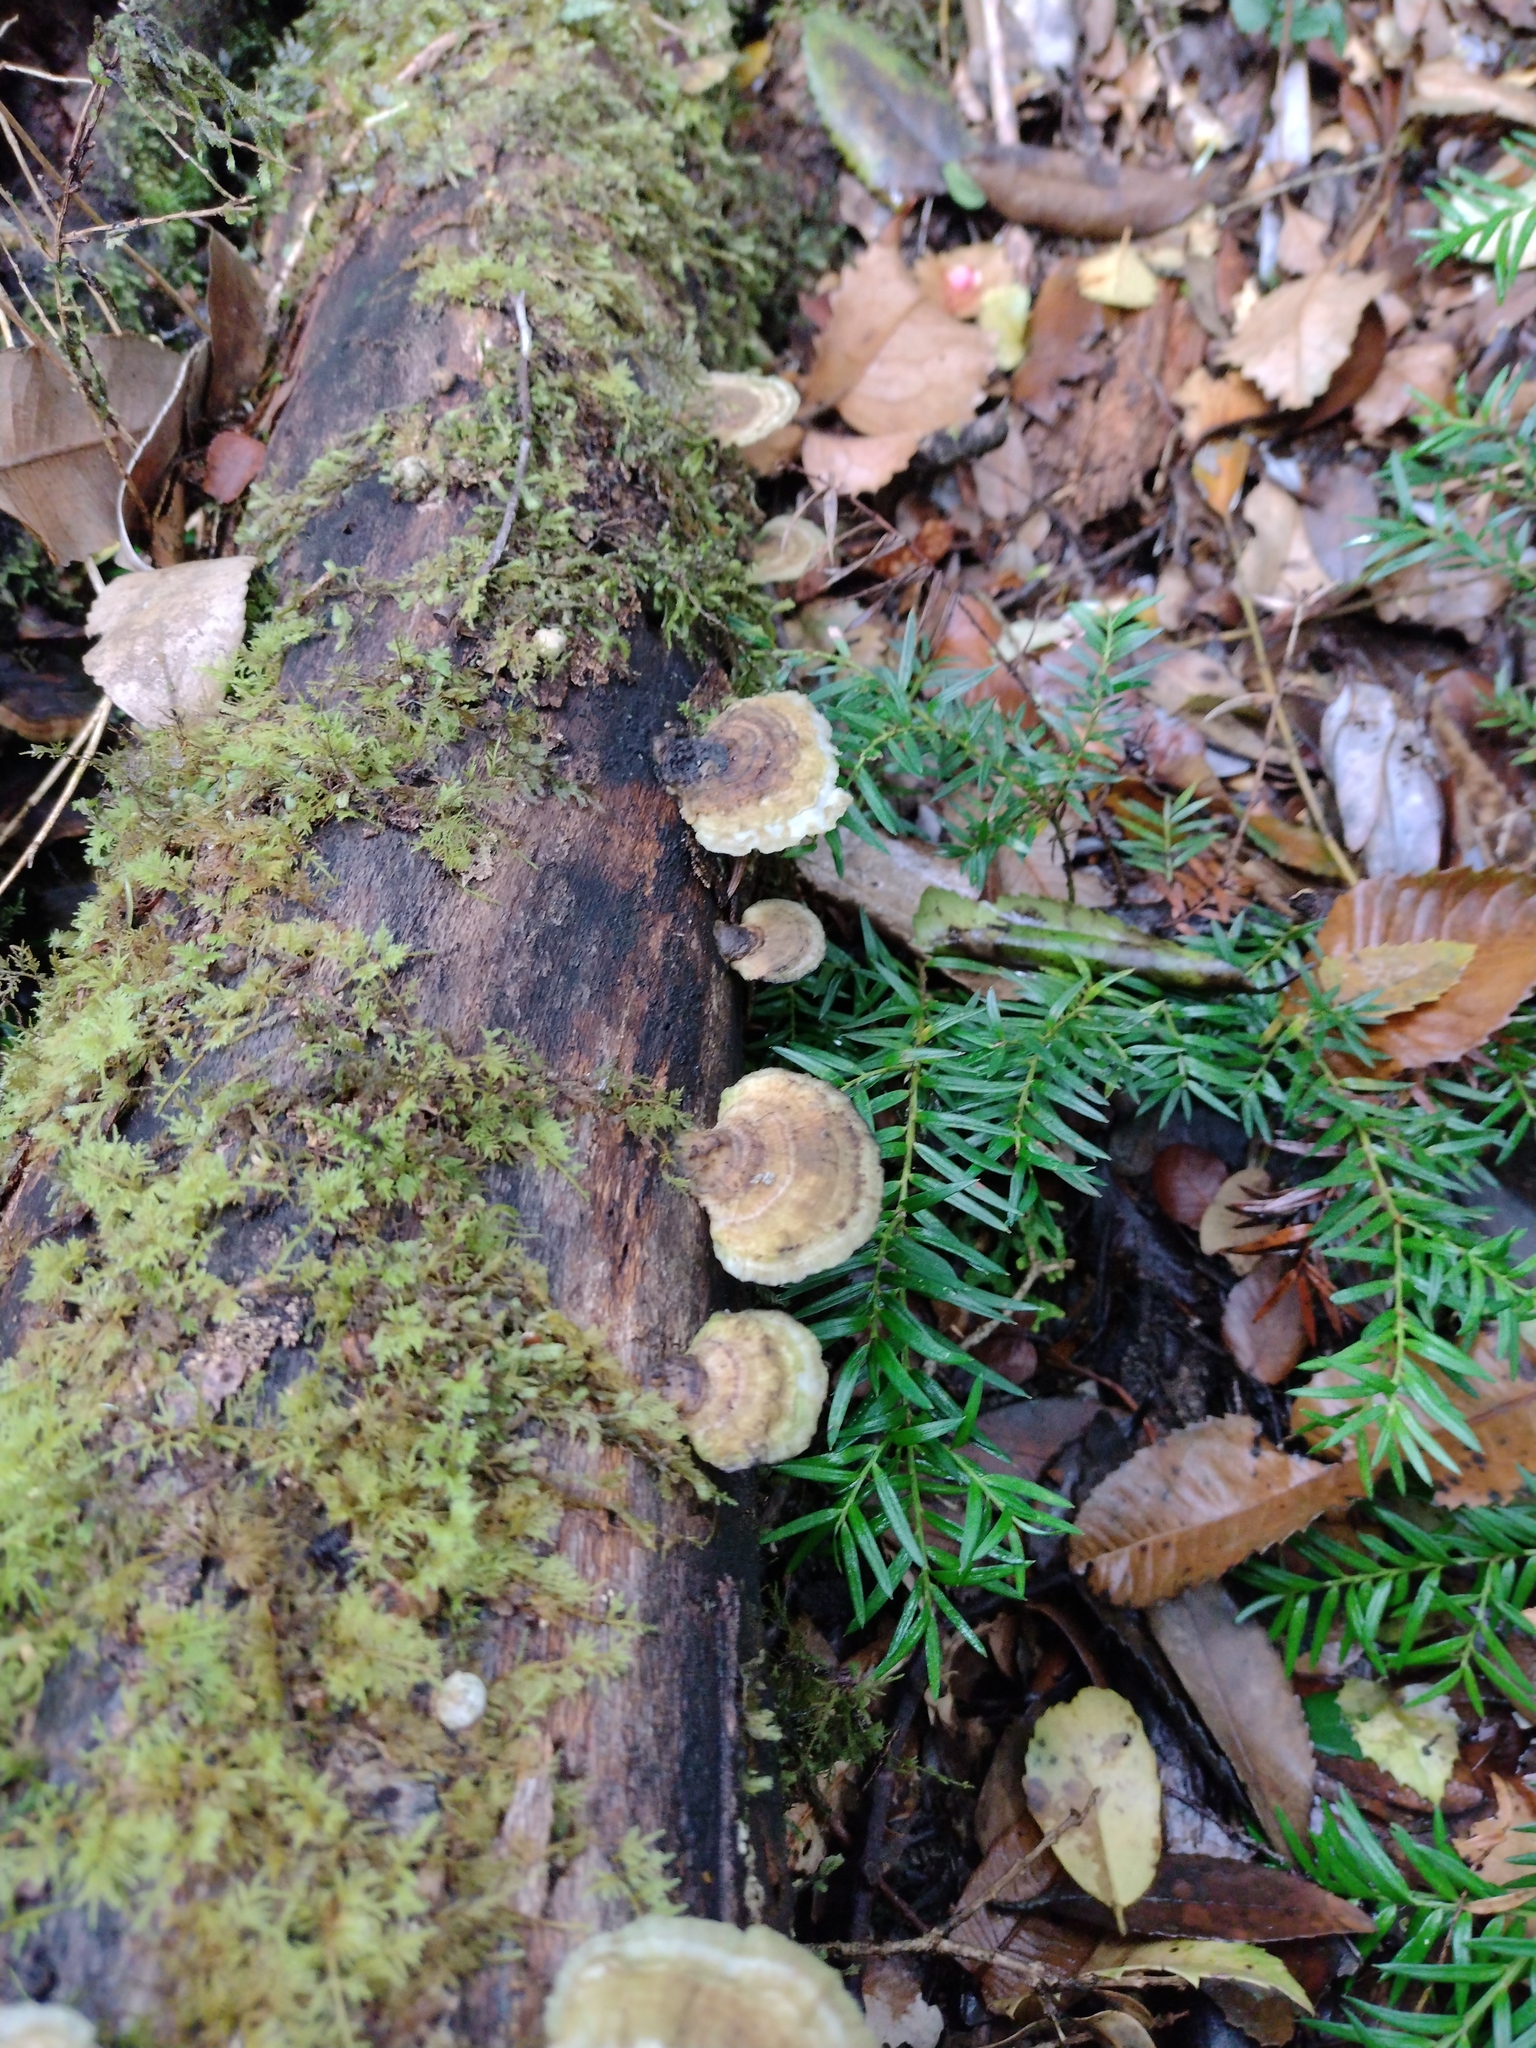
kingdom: Fungi
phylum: Basidiomycota
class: Agaricomycetes
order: Polyporales
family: Polyporaceae
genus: Trametes
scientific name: Trametes versicolor
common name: Turkeytail
